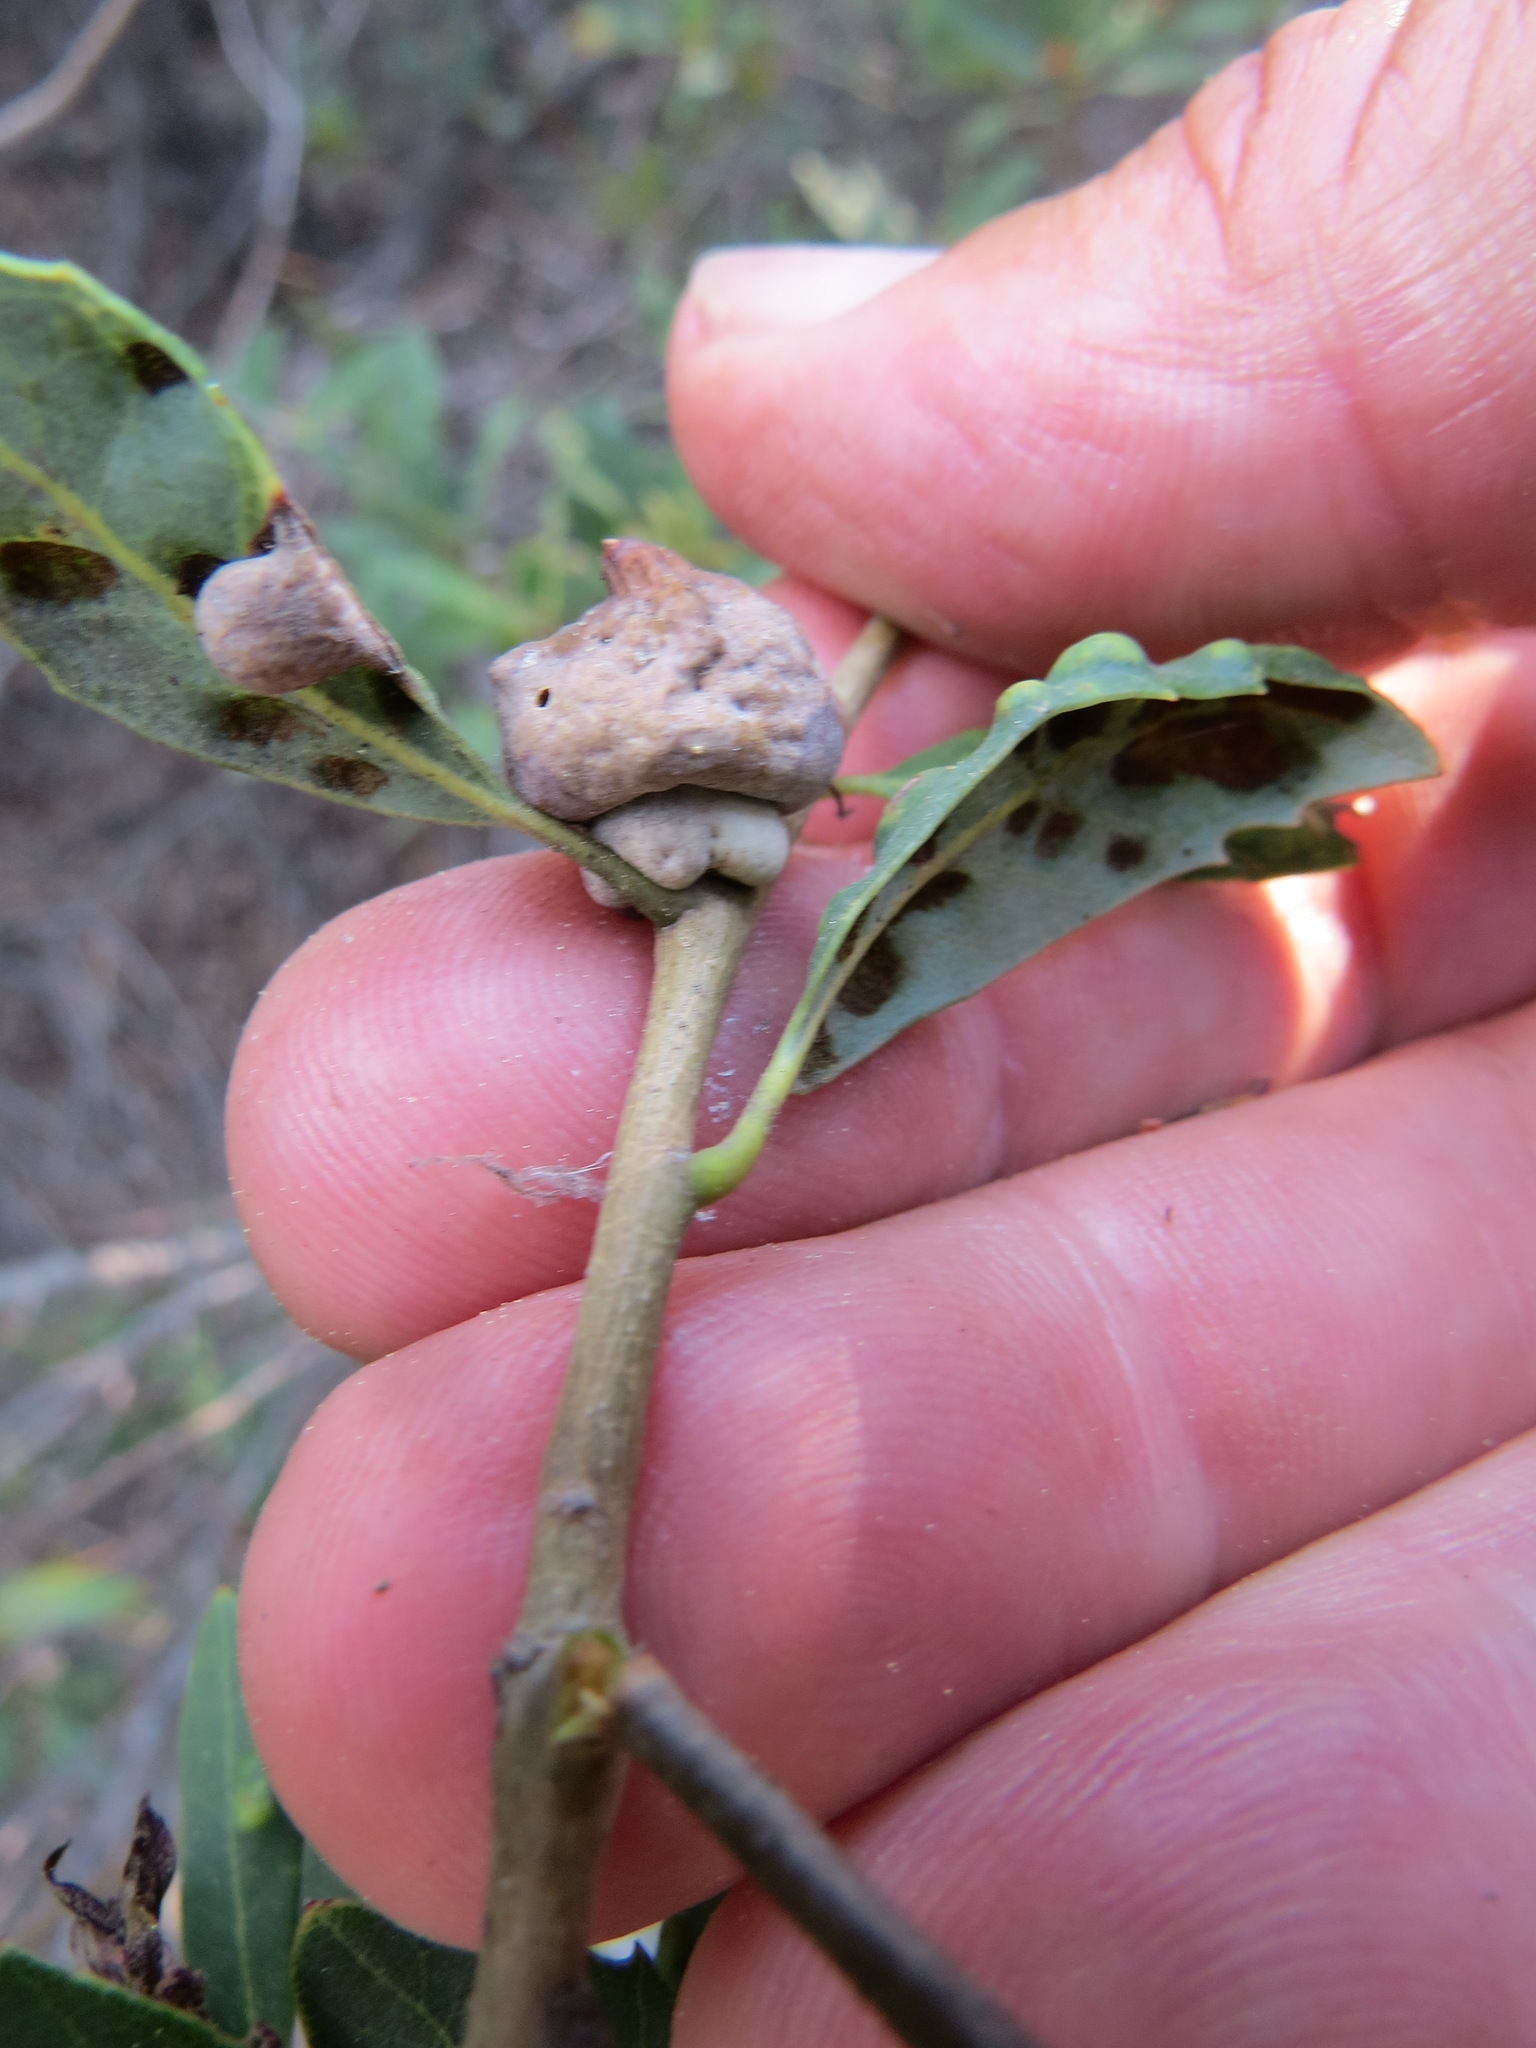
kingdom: Animalia
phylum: Arthropoda
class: Insecta
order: Hymenoptera
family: Cynipidae
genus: Heteroecus
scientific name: Heteroecus
